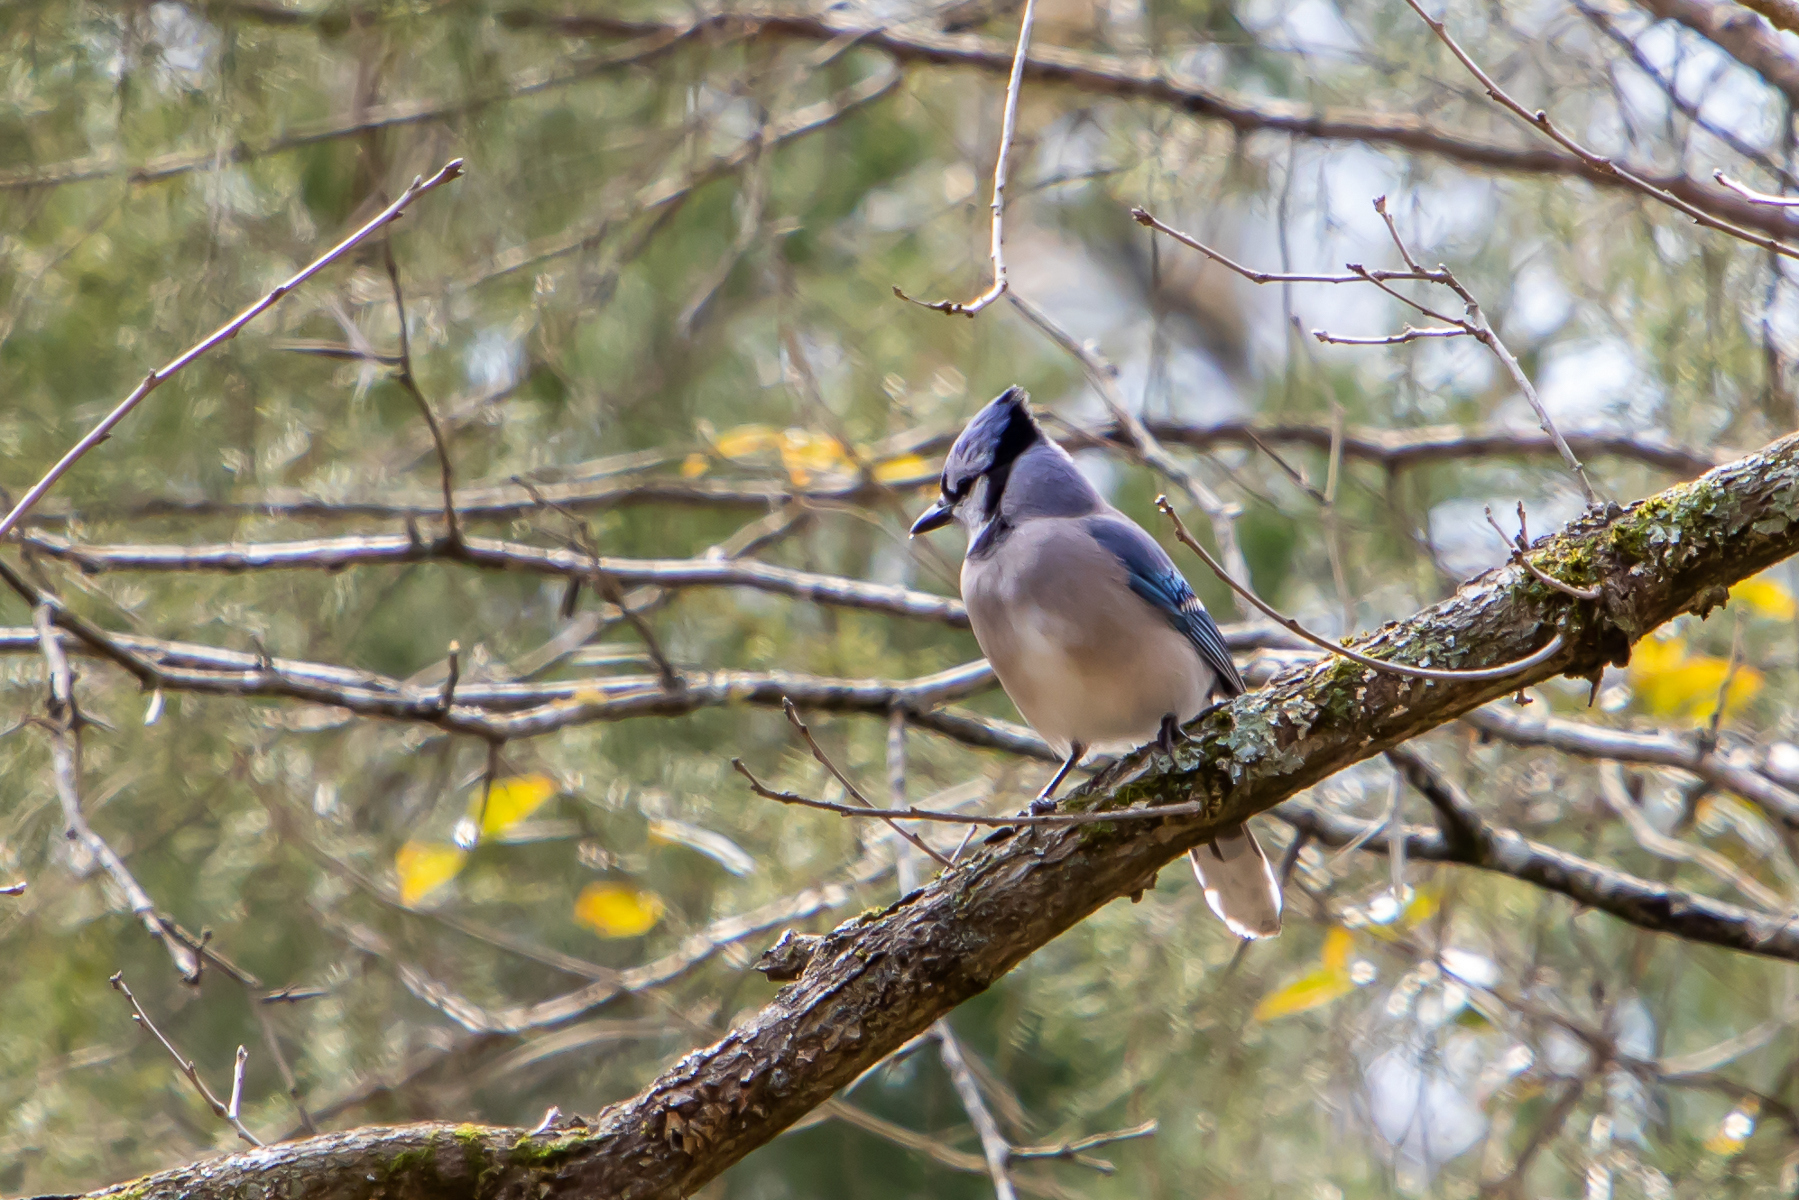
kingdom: Animalia
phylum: Chordata
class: Aves
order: Passeriformes
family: Corvidae
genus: Cyanocitta
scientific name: Cyanocitta cristata
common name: Blue jay
